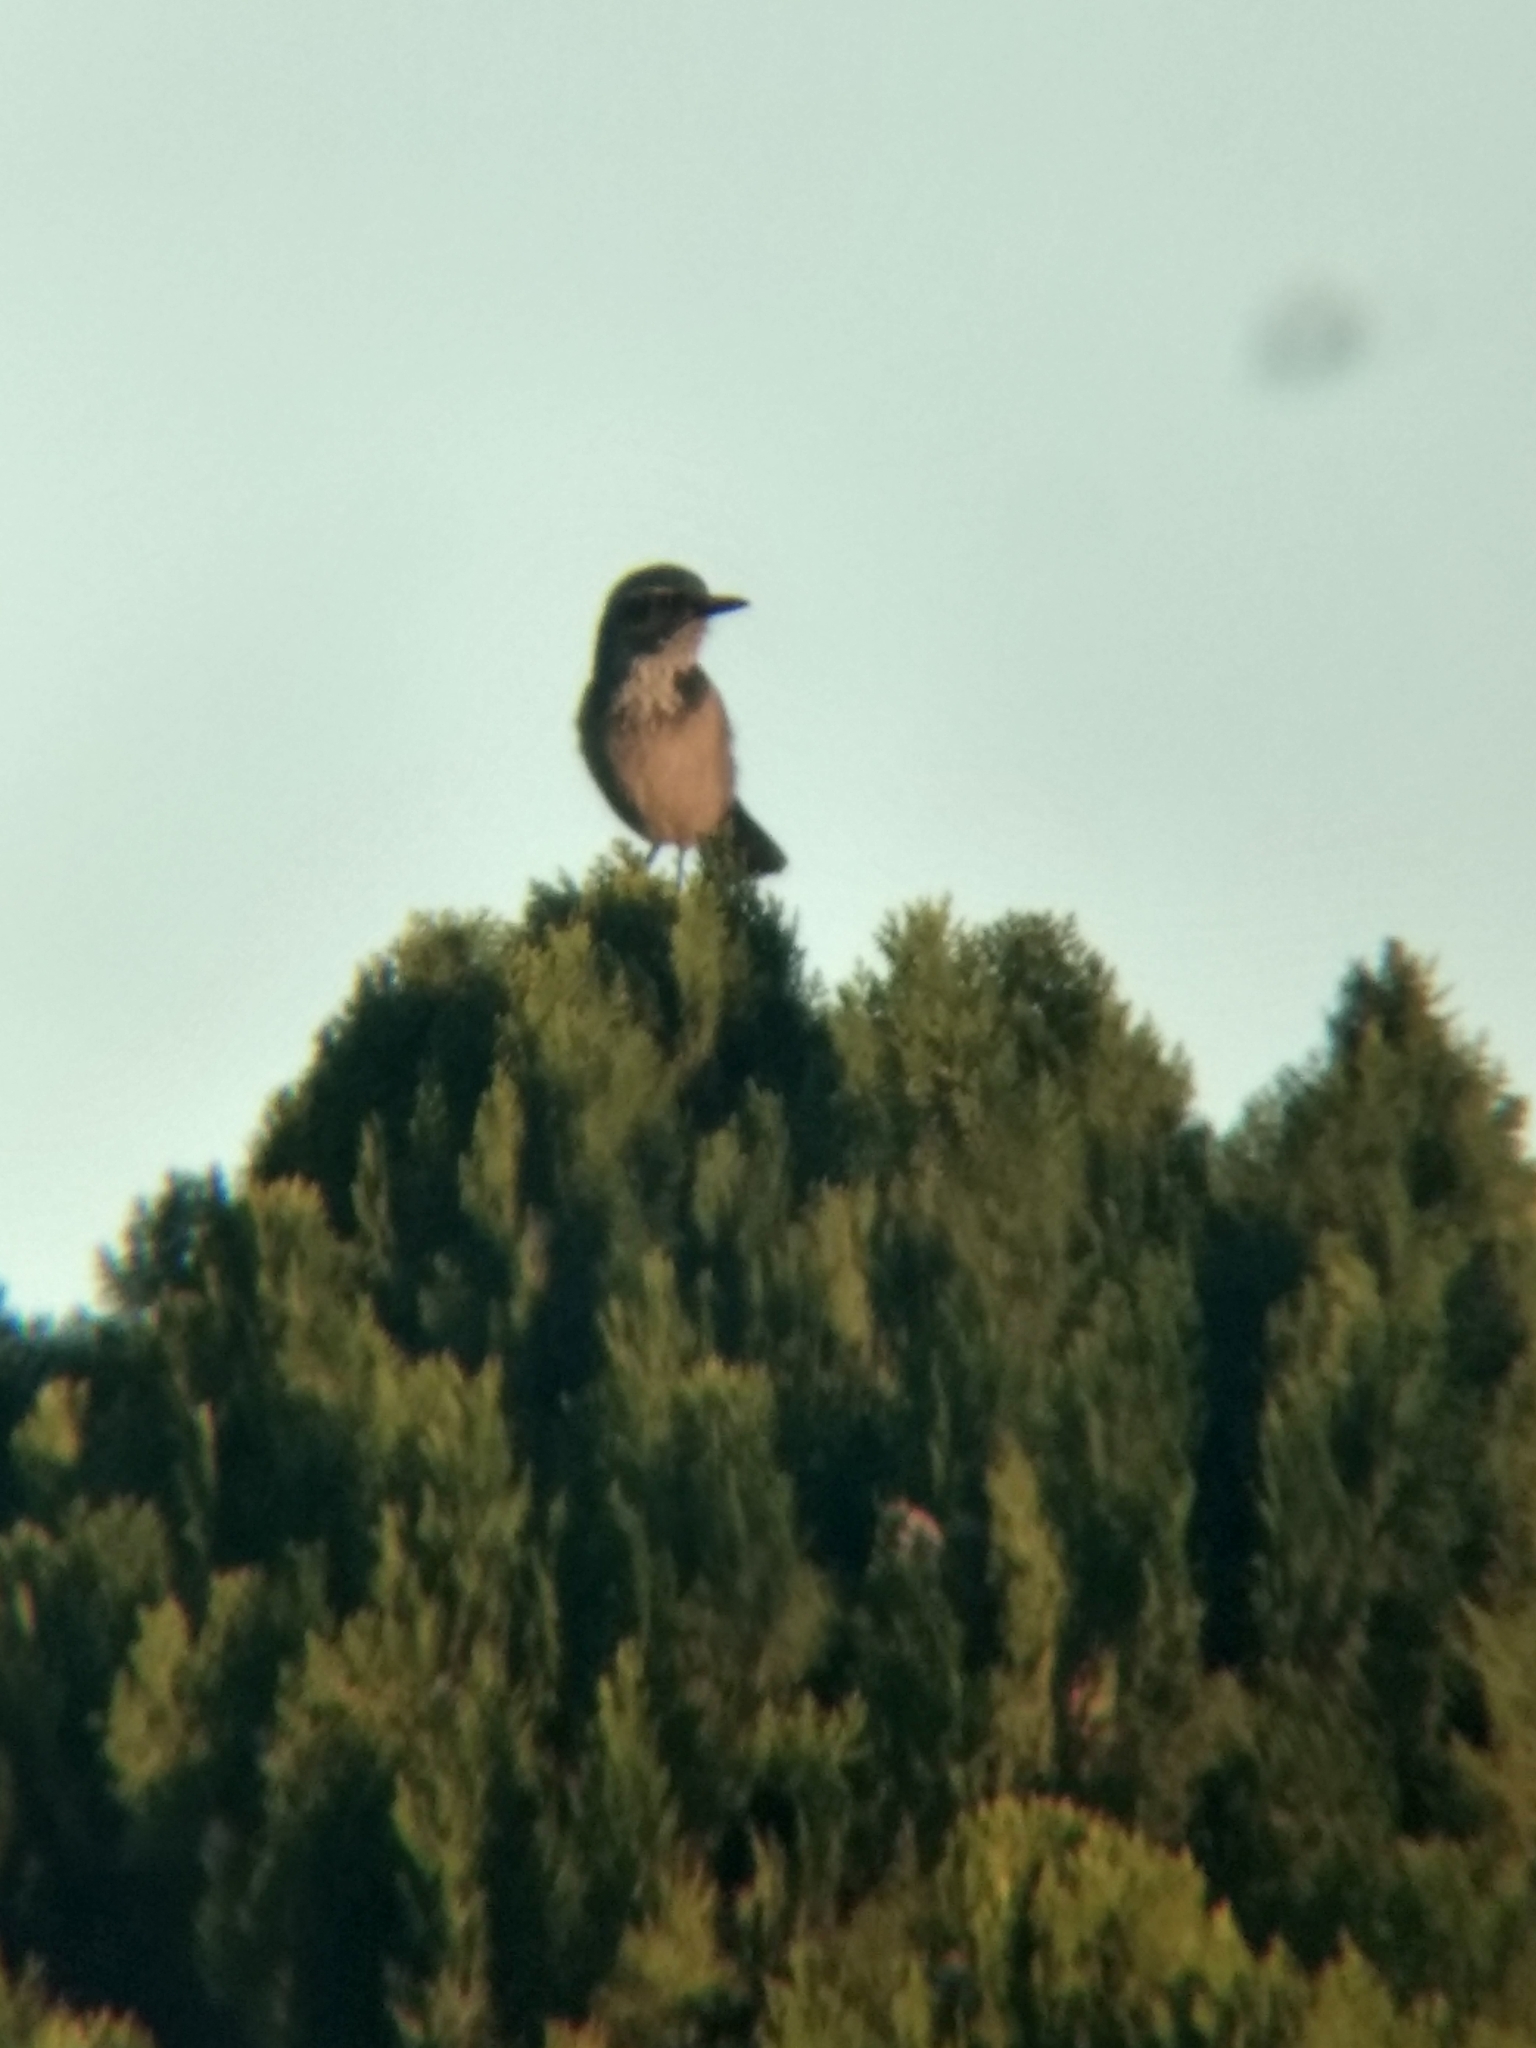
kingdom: Animalia
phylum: Chordata
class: Aves
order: Passeriformes
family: Corvidae
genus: Aphelocoma
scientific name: Aphelocoma californica
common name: California scrub-jay
